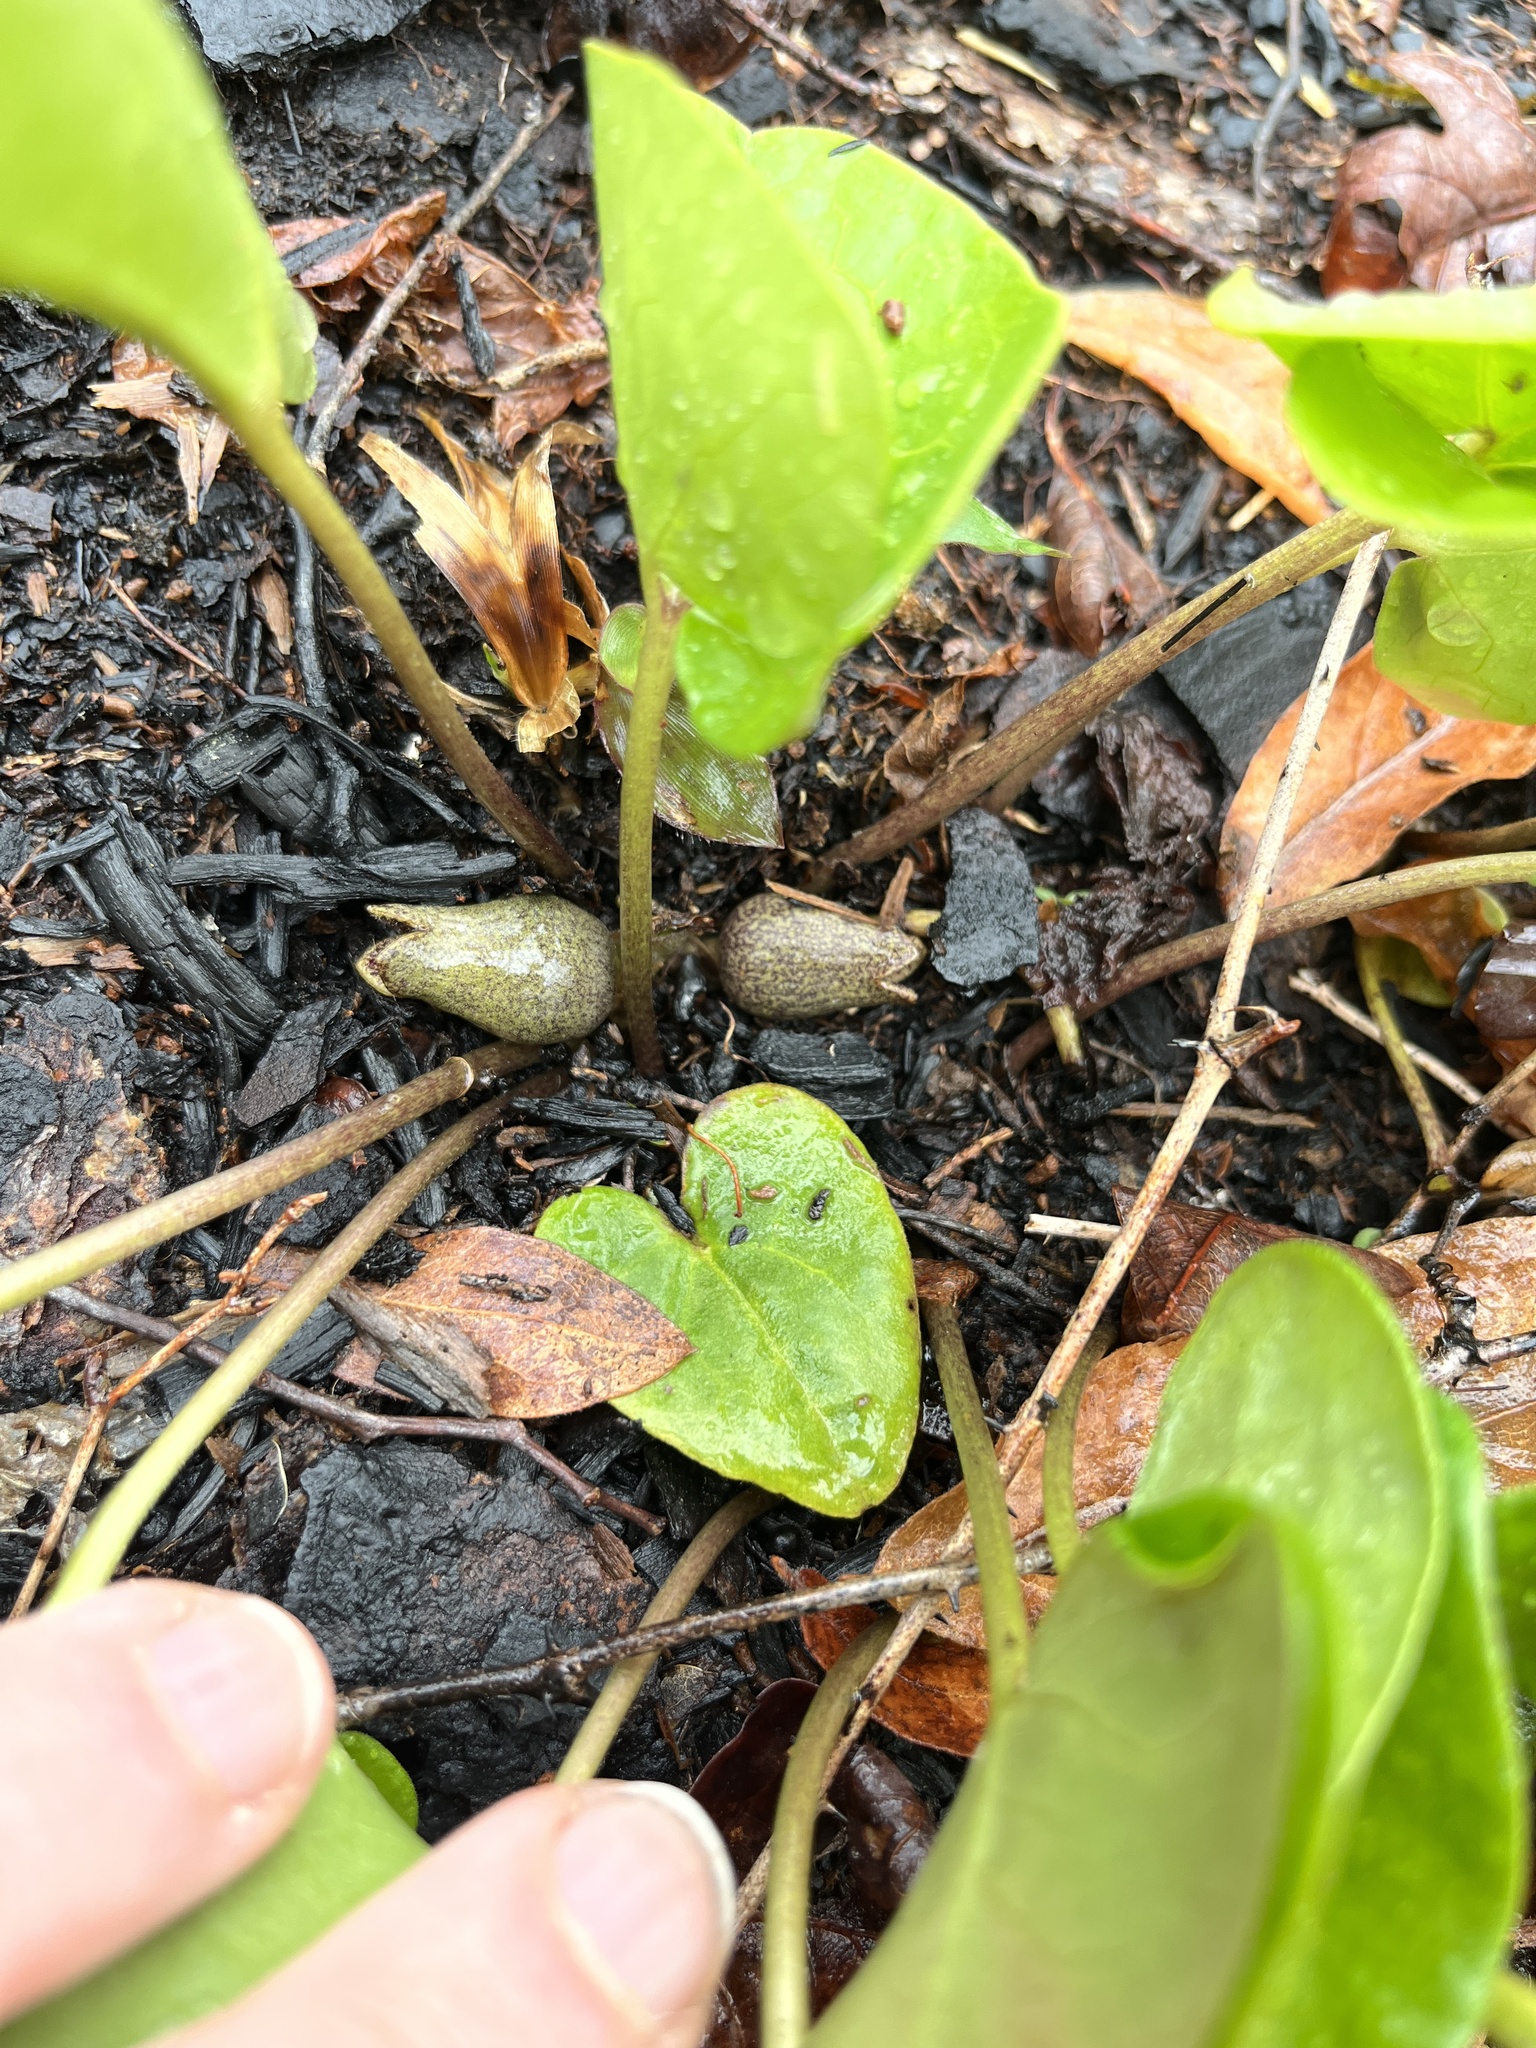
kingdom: Plantae
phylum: Tracheophyta
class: Magnoliopsida
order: Piperales
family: Aristolochiaceae
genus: Hexastylis
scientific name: Hexastylis arifolia
